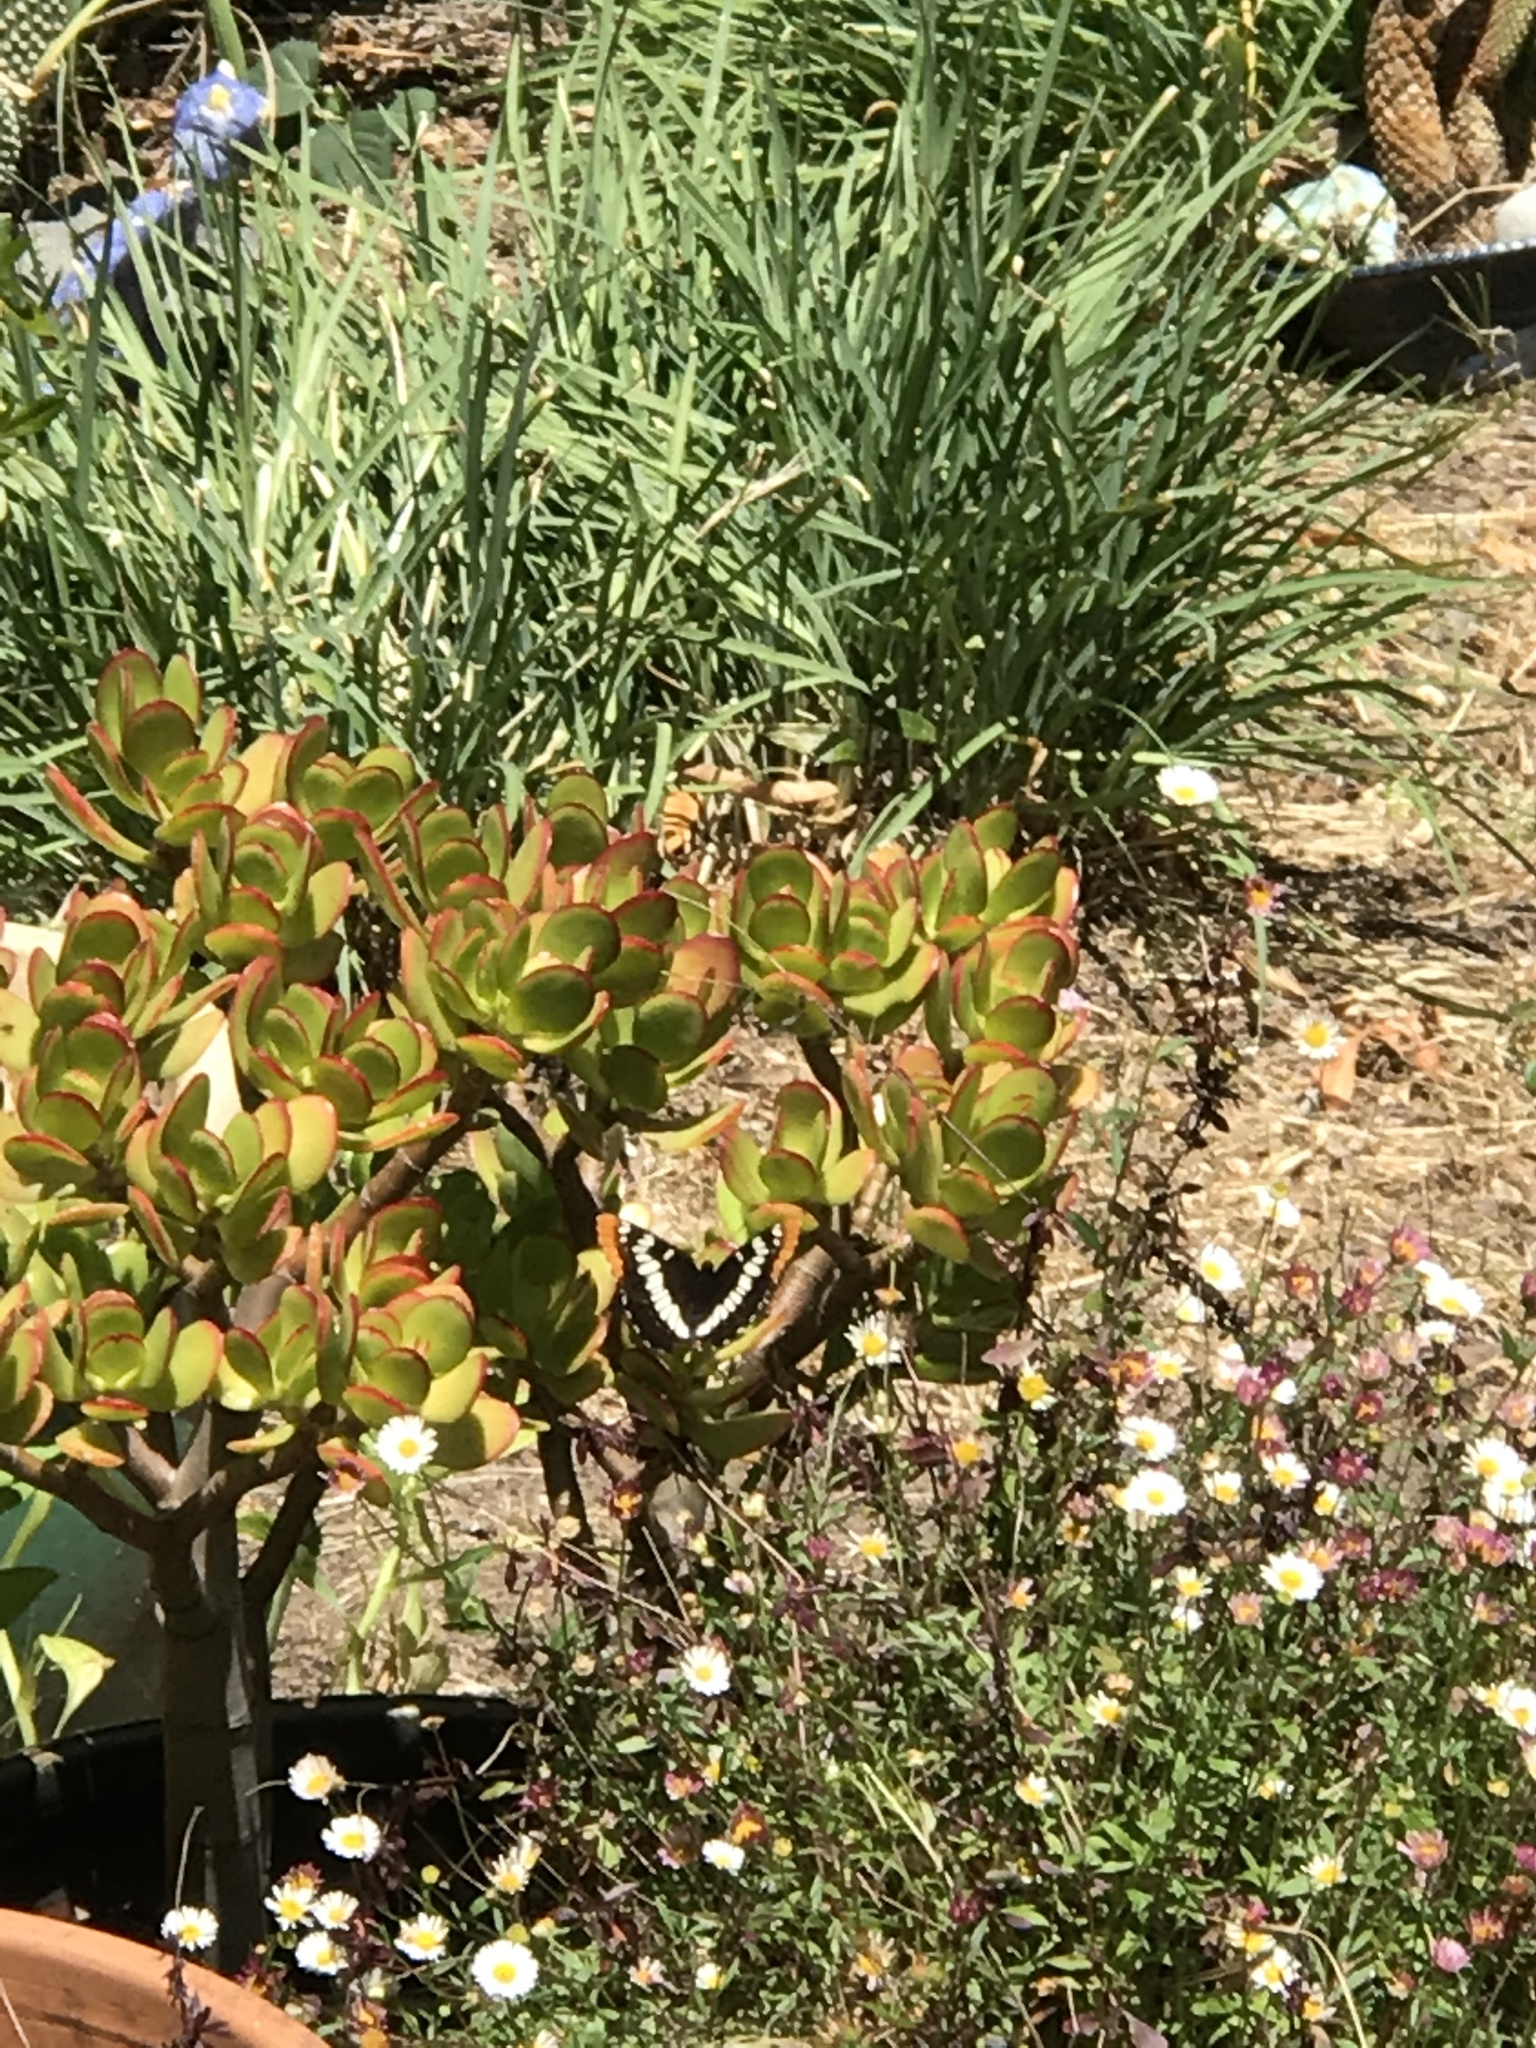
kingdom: Animalia
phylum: Arthropoda
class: Insecta
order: Lepidoptera
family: Nymphalidae
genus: Limenitis
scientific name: Limenitis lorquini
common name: Lorquin's admiral
